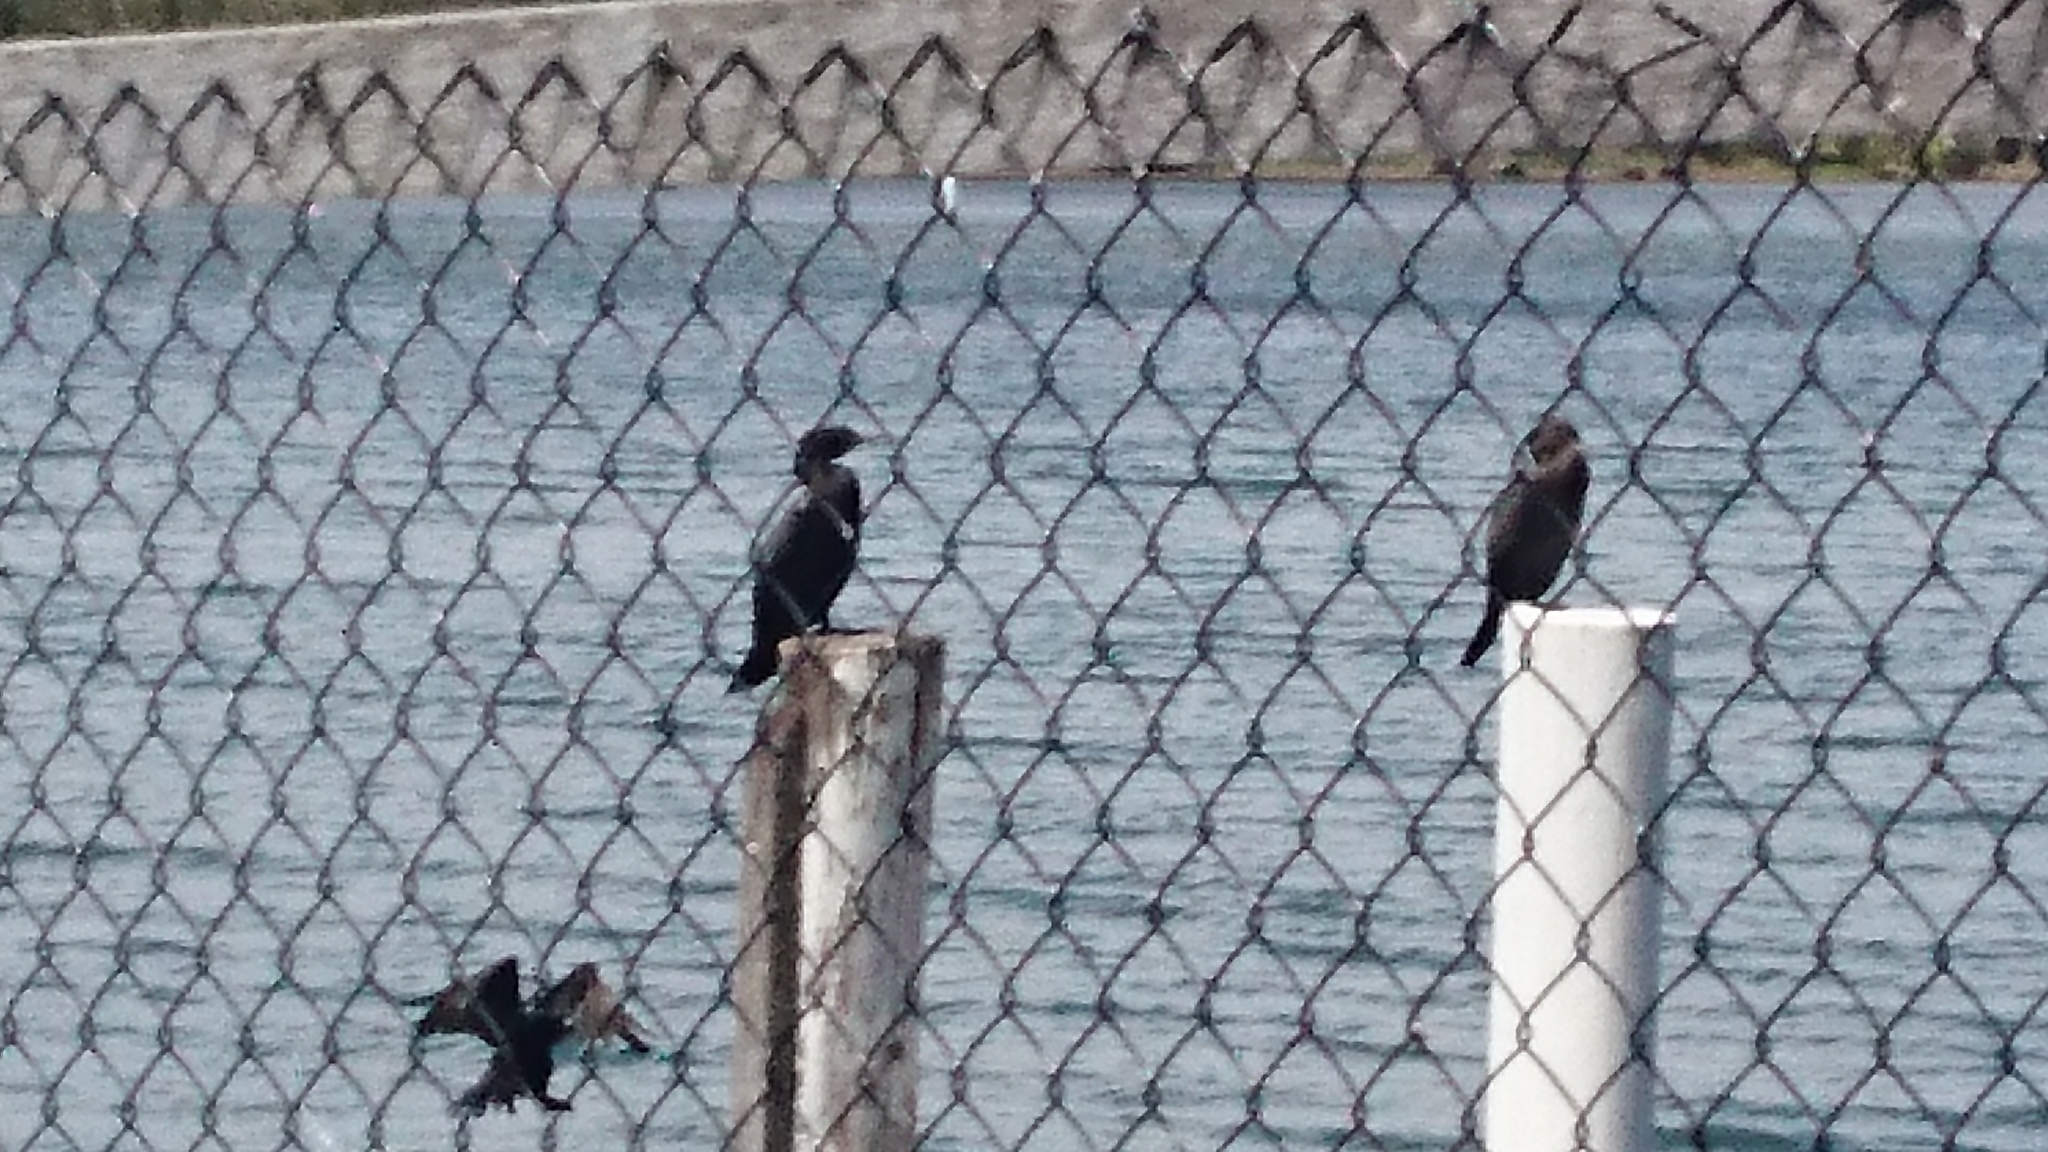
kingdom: Animalia
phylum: Chordata
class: Aves
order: Suliformes
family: Phalacrocoracidae
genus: Phalacrocorax
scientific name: Phalacrocorax sulcirostris
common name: Little black cormorant
